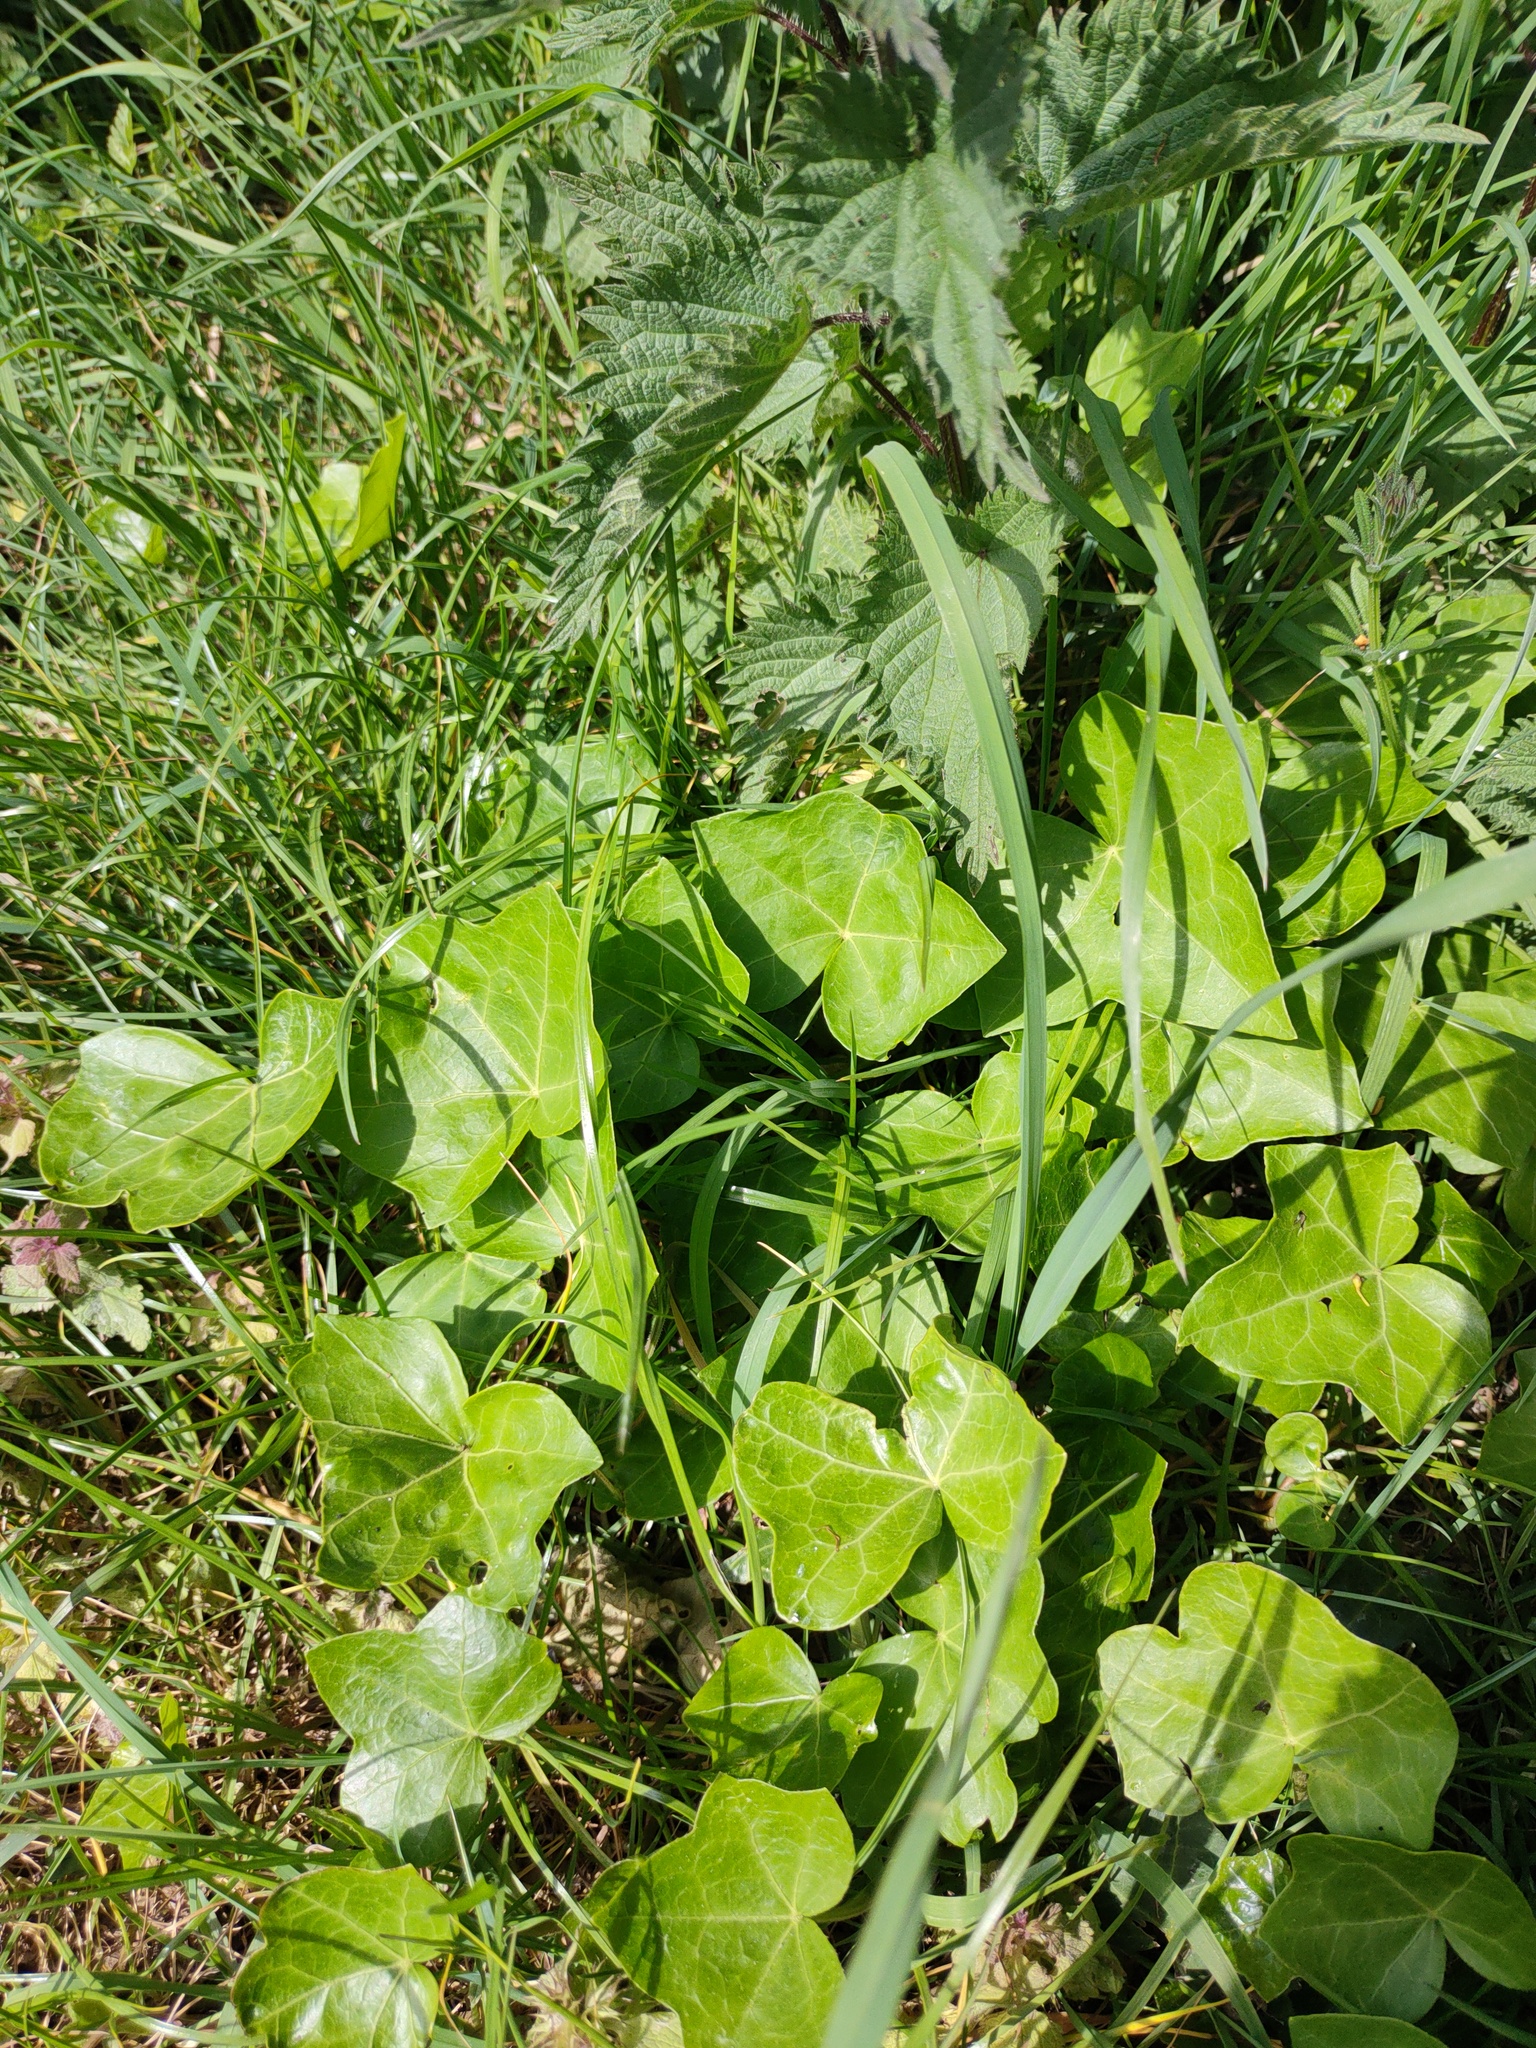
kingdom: Plantae
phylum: Tracheophyta
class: Magnoliopsida
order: Apiales
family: Araliaceae
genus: Hedera
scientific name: Hedera helix
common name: Ivy
